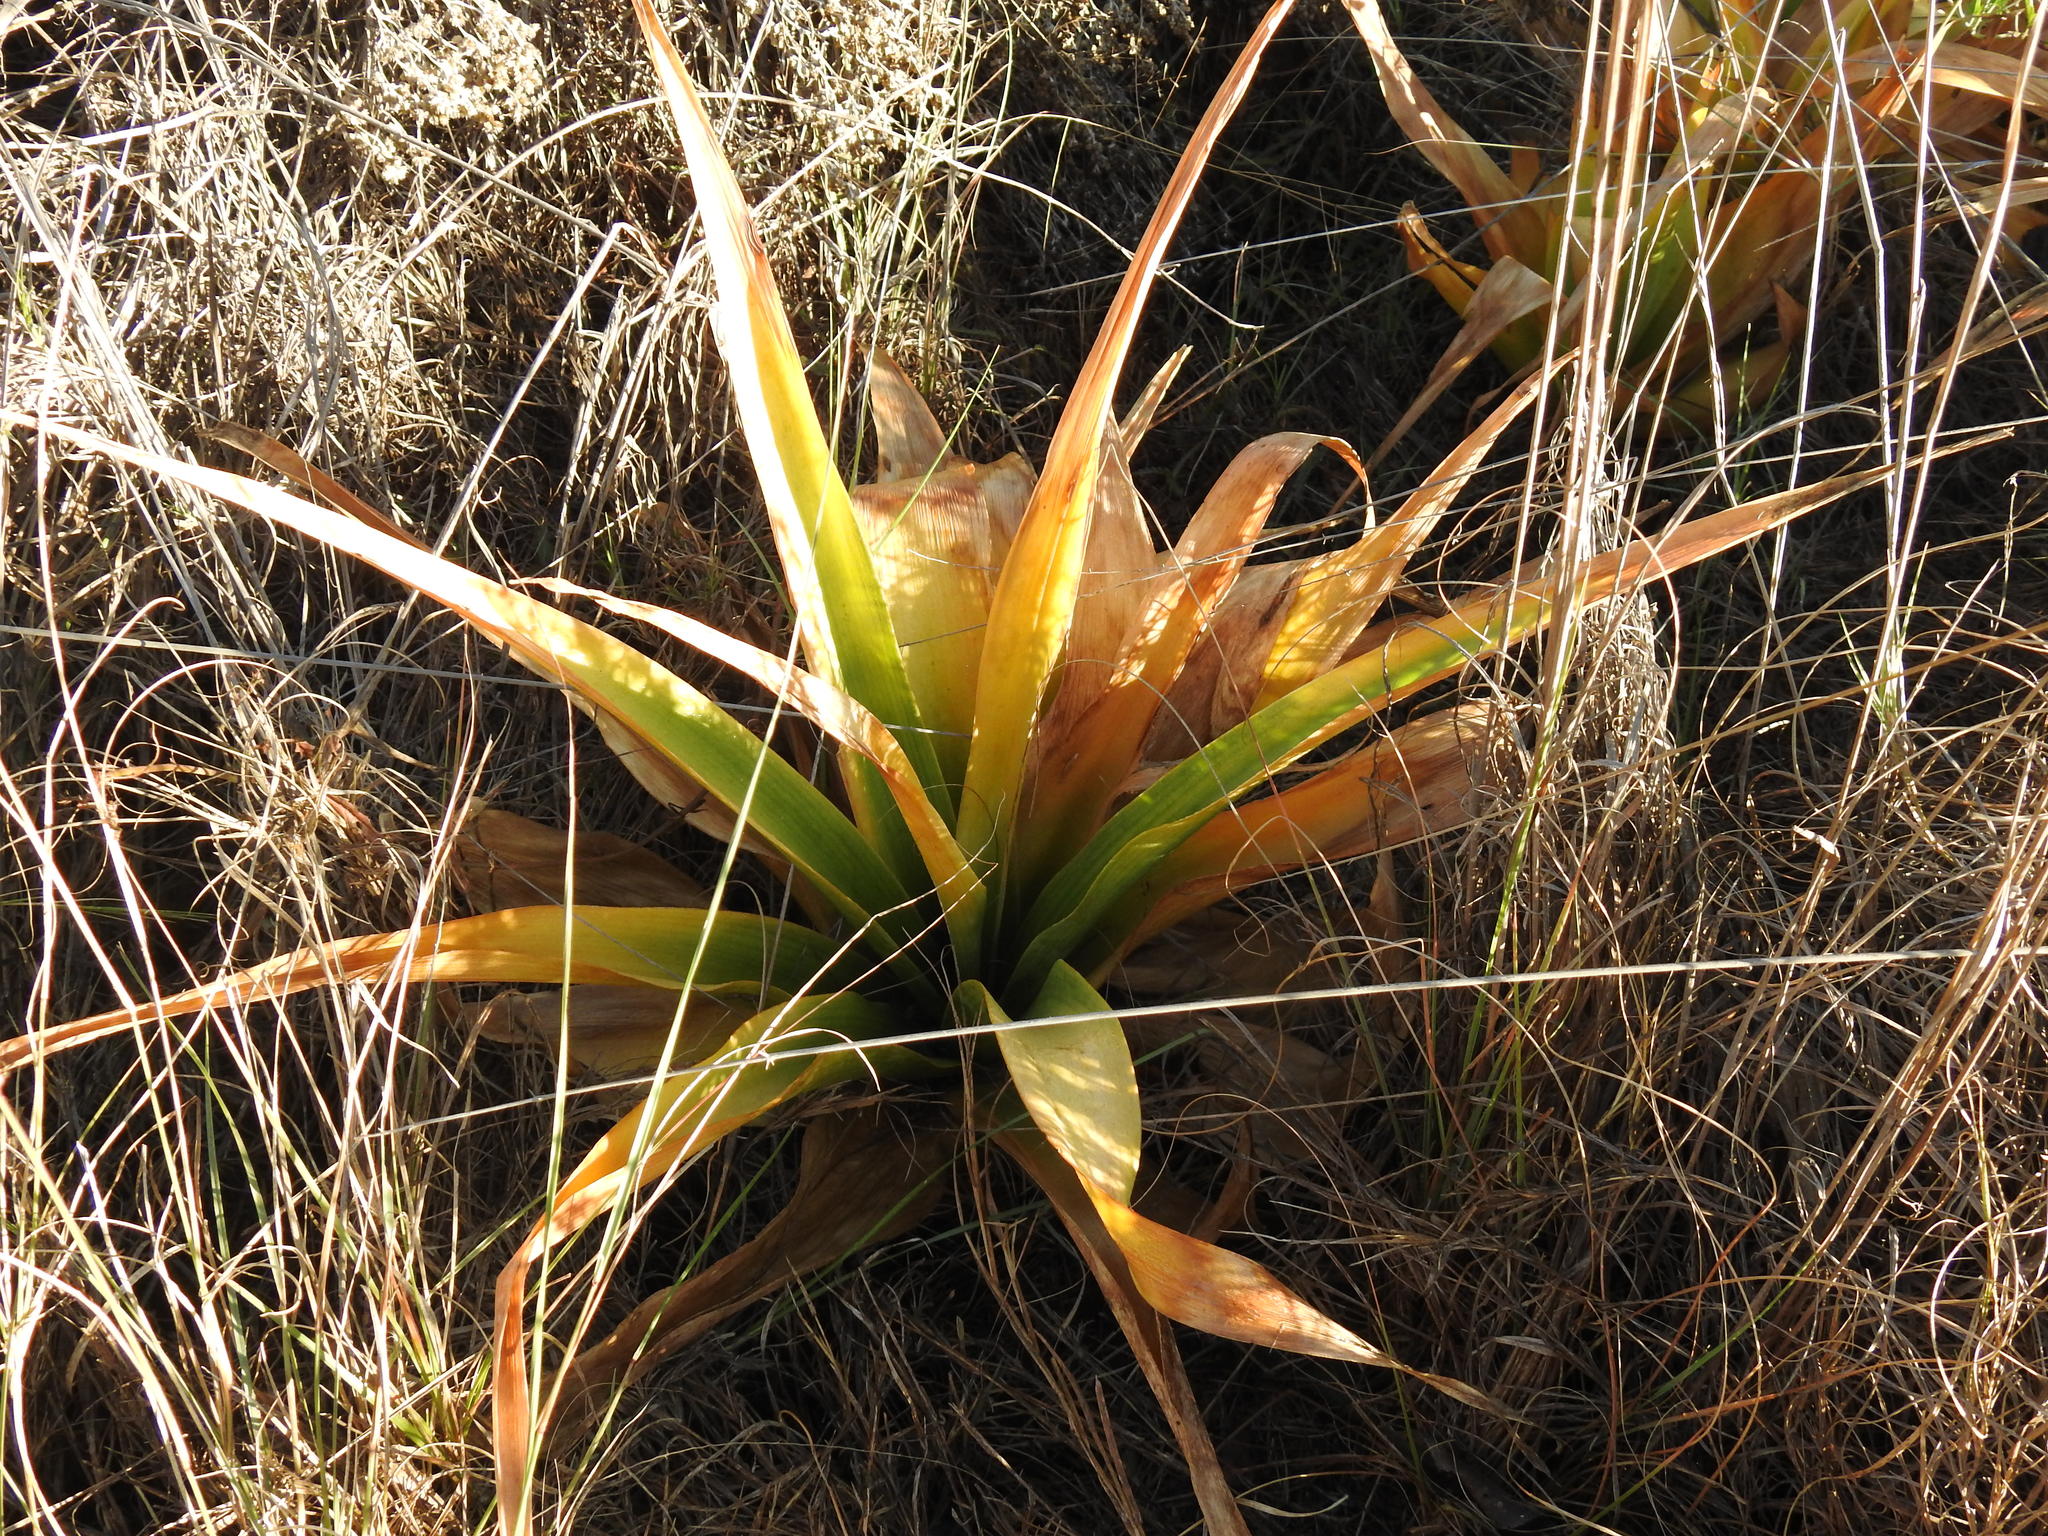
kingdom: Plantae
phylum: Tracheophyta
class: Liliopsida
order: Asparagales
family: Asparagaceae
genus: Drimia
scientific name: Drimia elata
